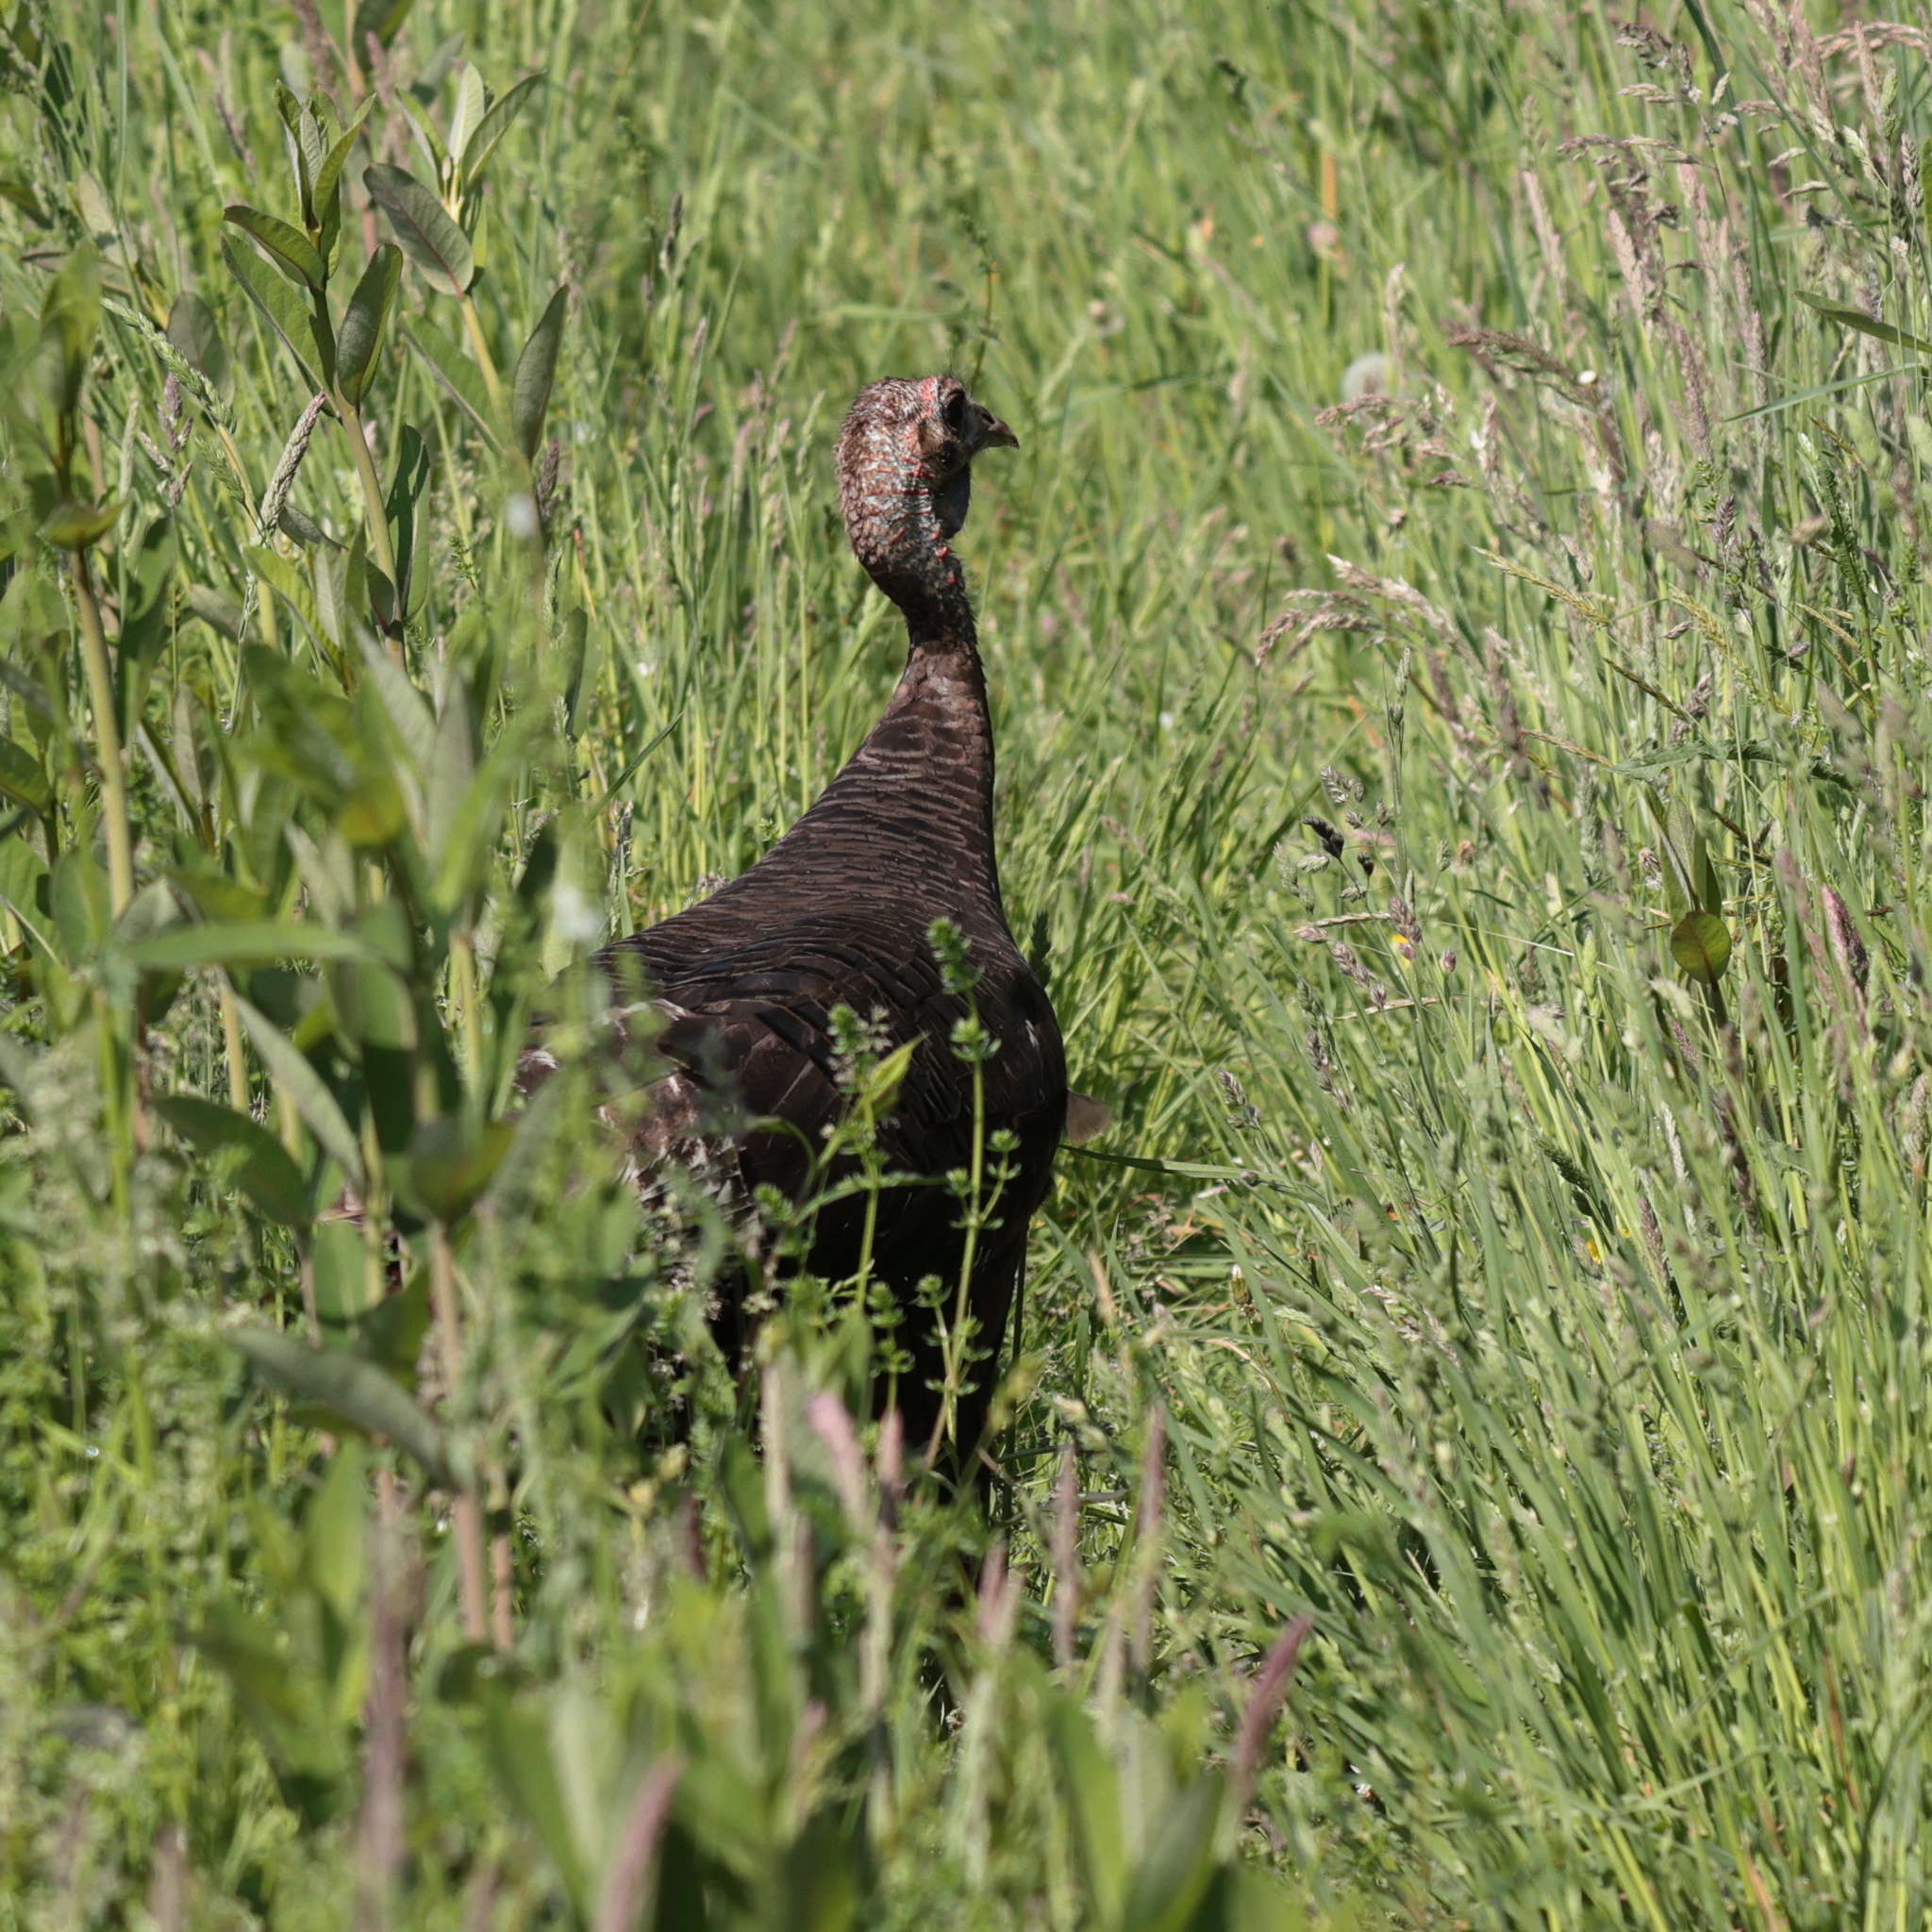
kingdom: Animalia
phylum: Chordata
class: Aves
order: Galliformes
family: Phasianidae
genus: Meleagris
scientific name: Meleagris gallopavo
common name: Wild turkey
